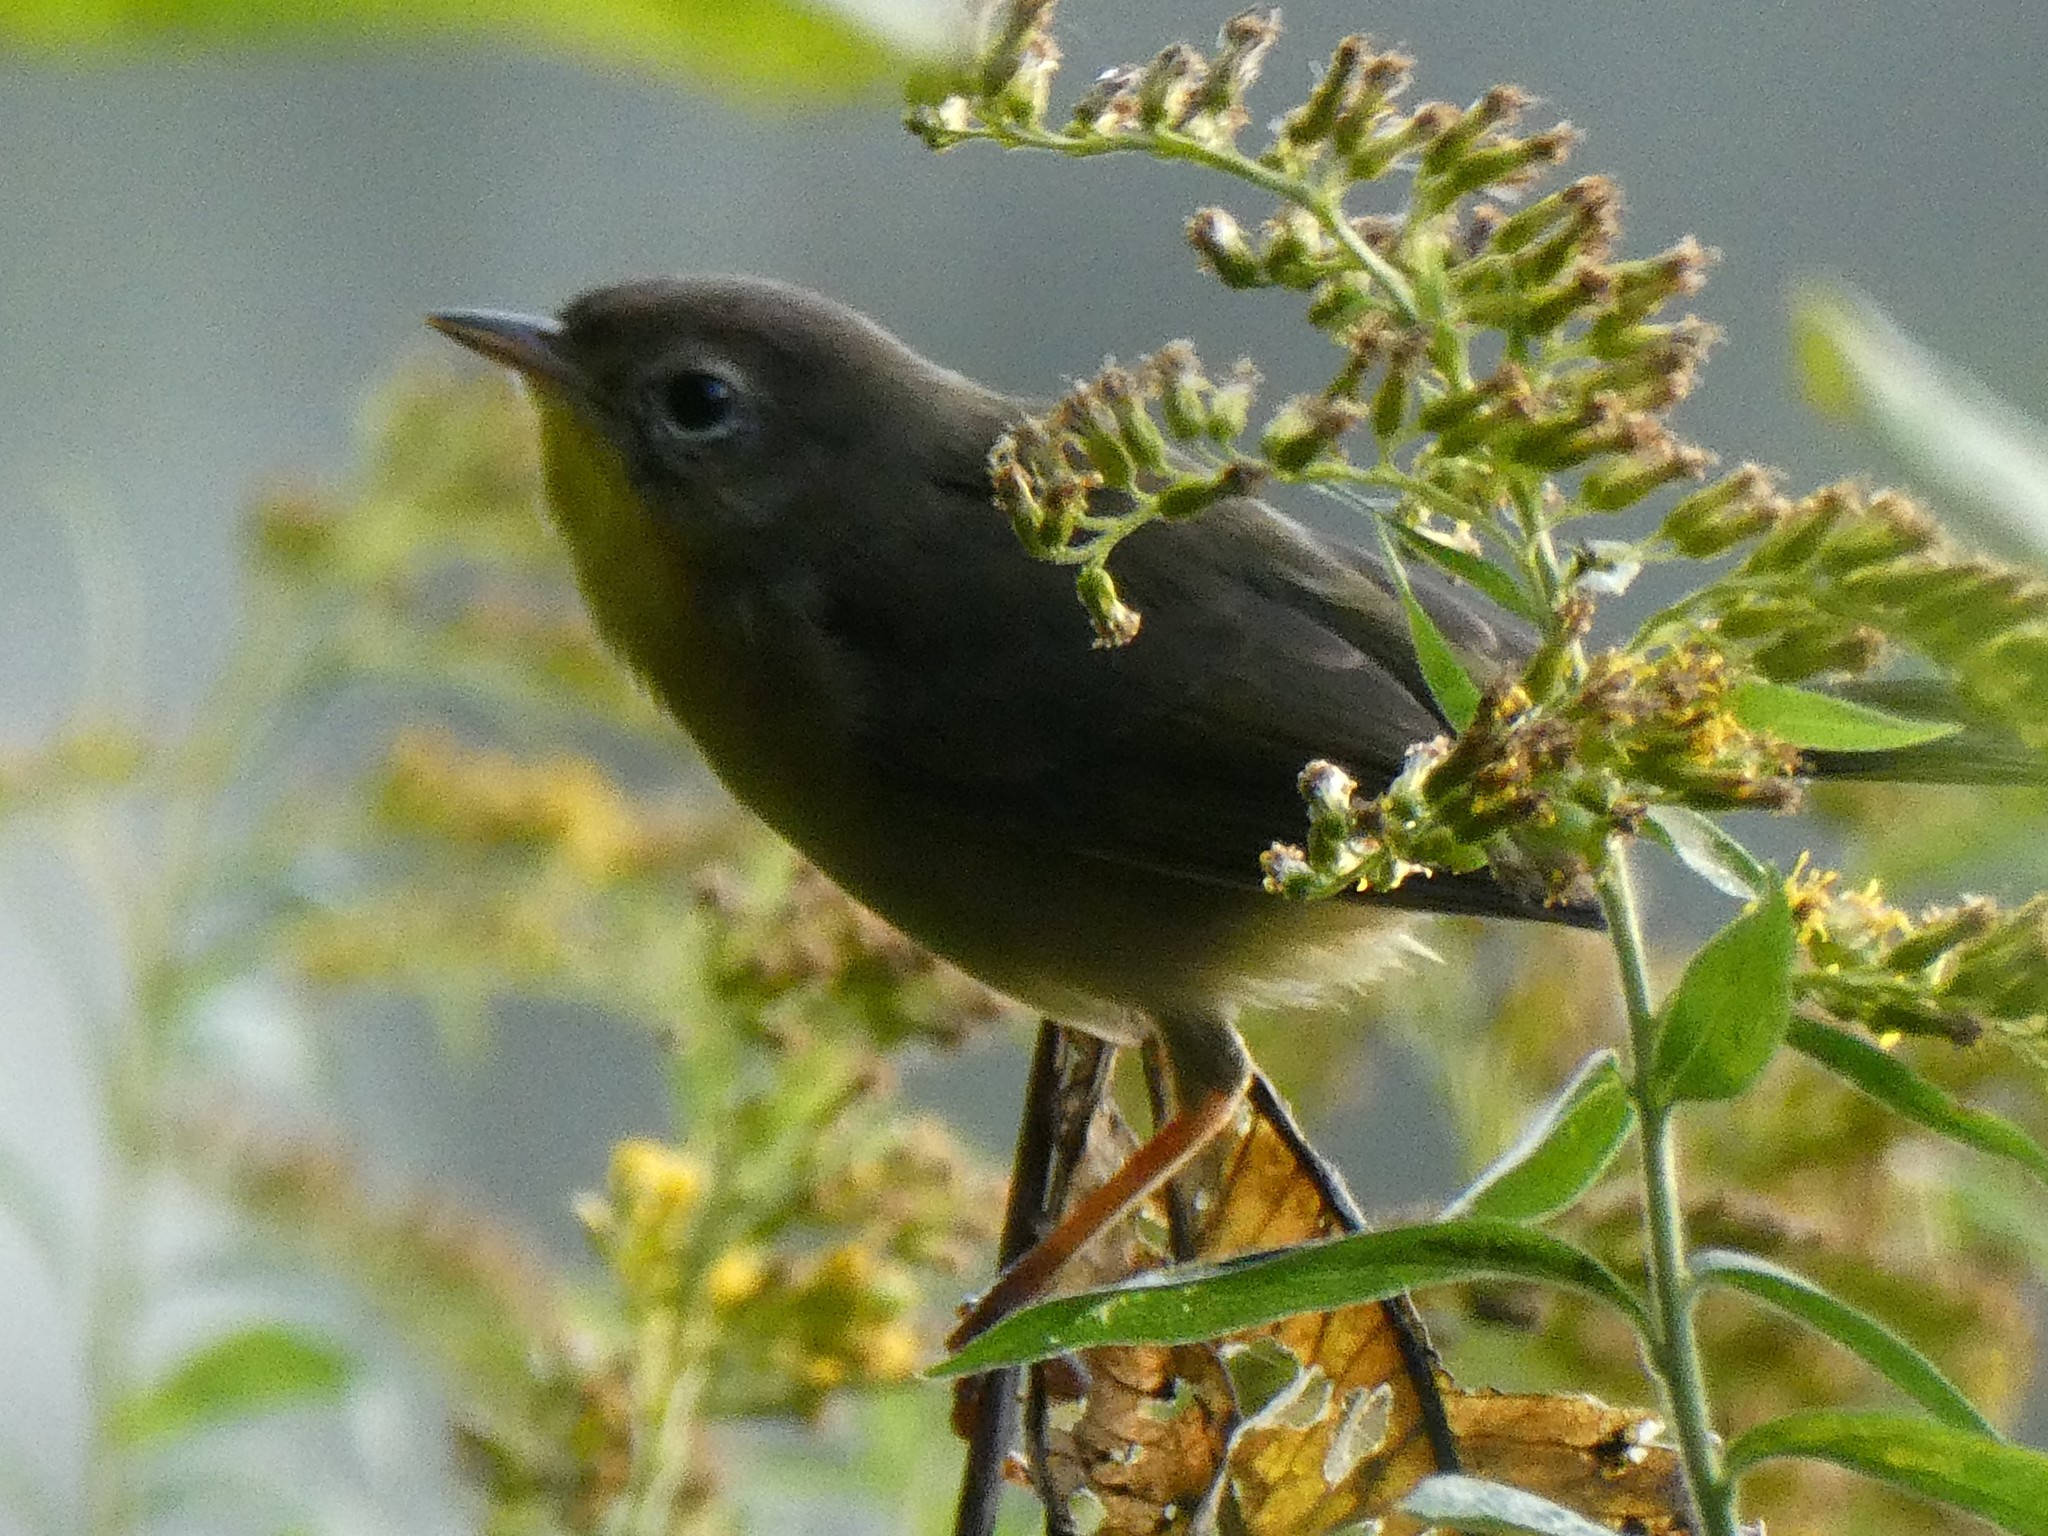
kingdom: Animalia
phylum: Chordata
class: Aves
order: Passeriformes
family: Parulidae
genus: Geothlypis
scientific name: Geothlypis trichas
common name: Common yellowthroat
